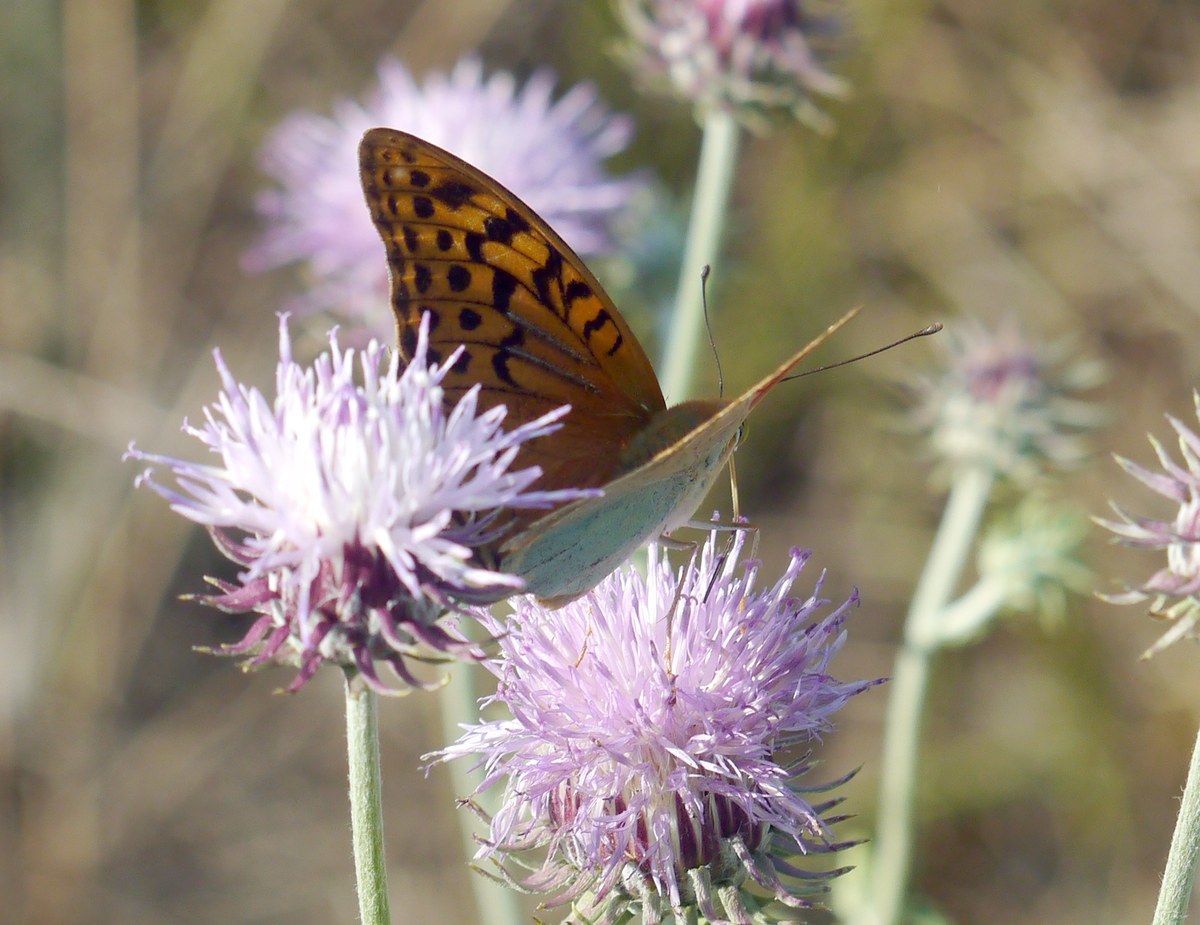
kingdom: Animalia
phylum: Arthropoda
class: Insecta
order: Lepidoptera
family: Nymphalidae
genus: Damora
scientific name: Damora pandora
